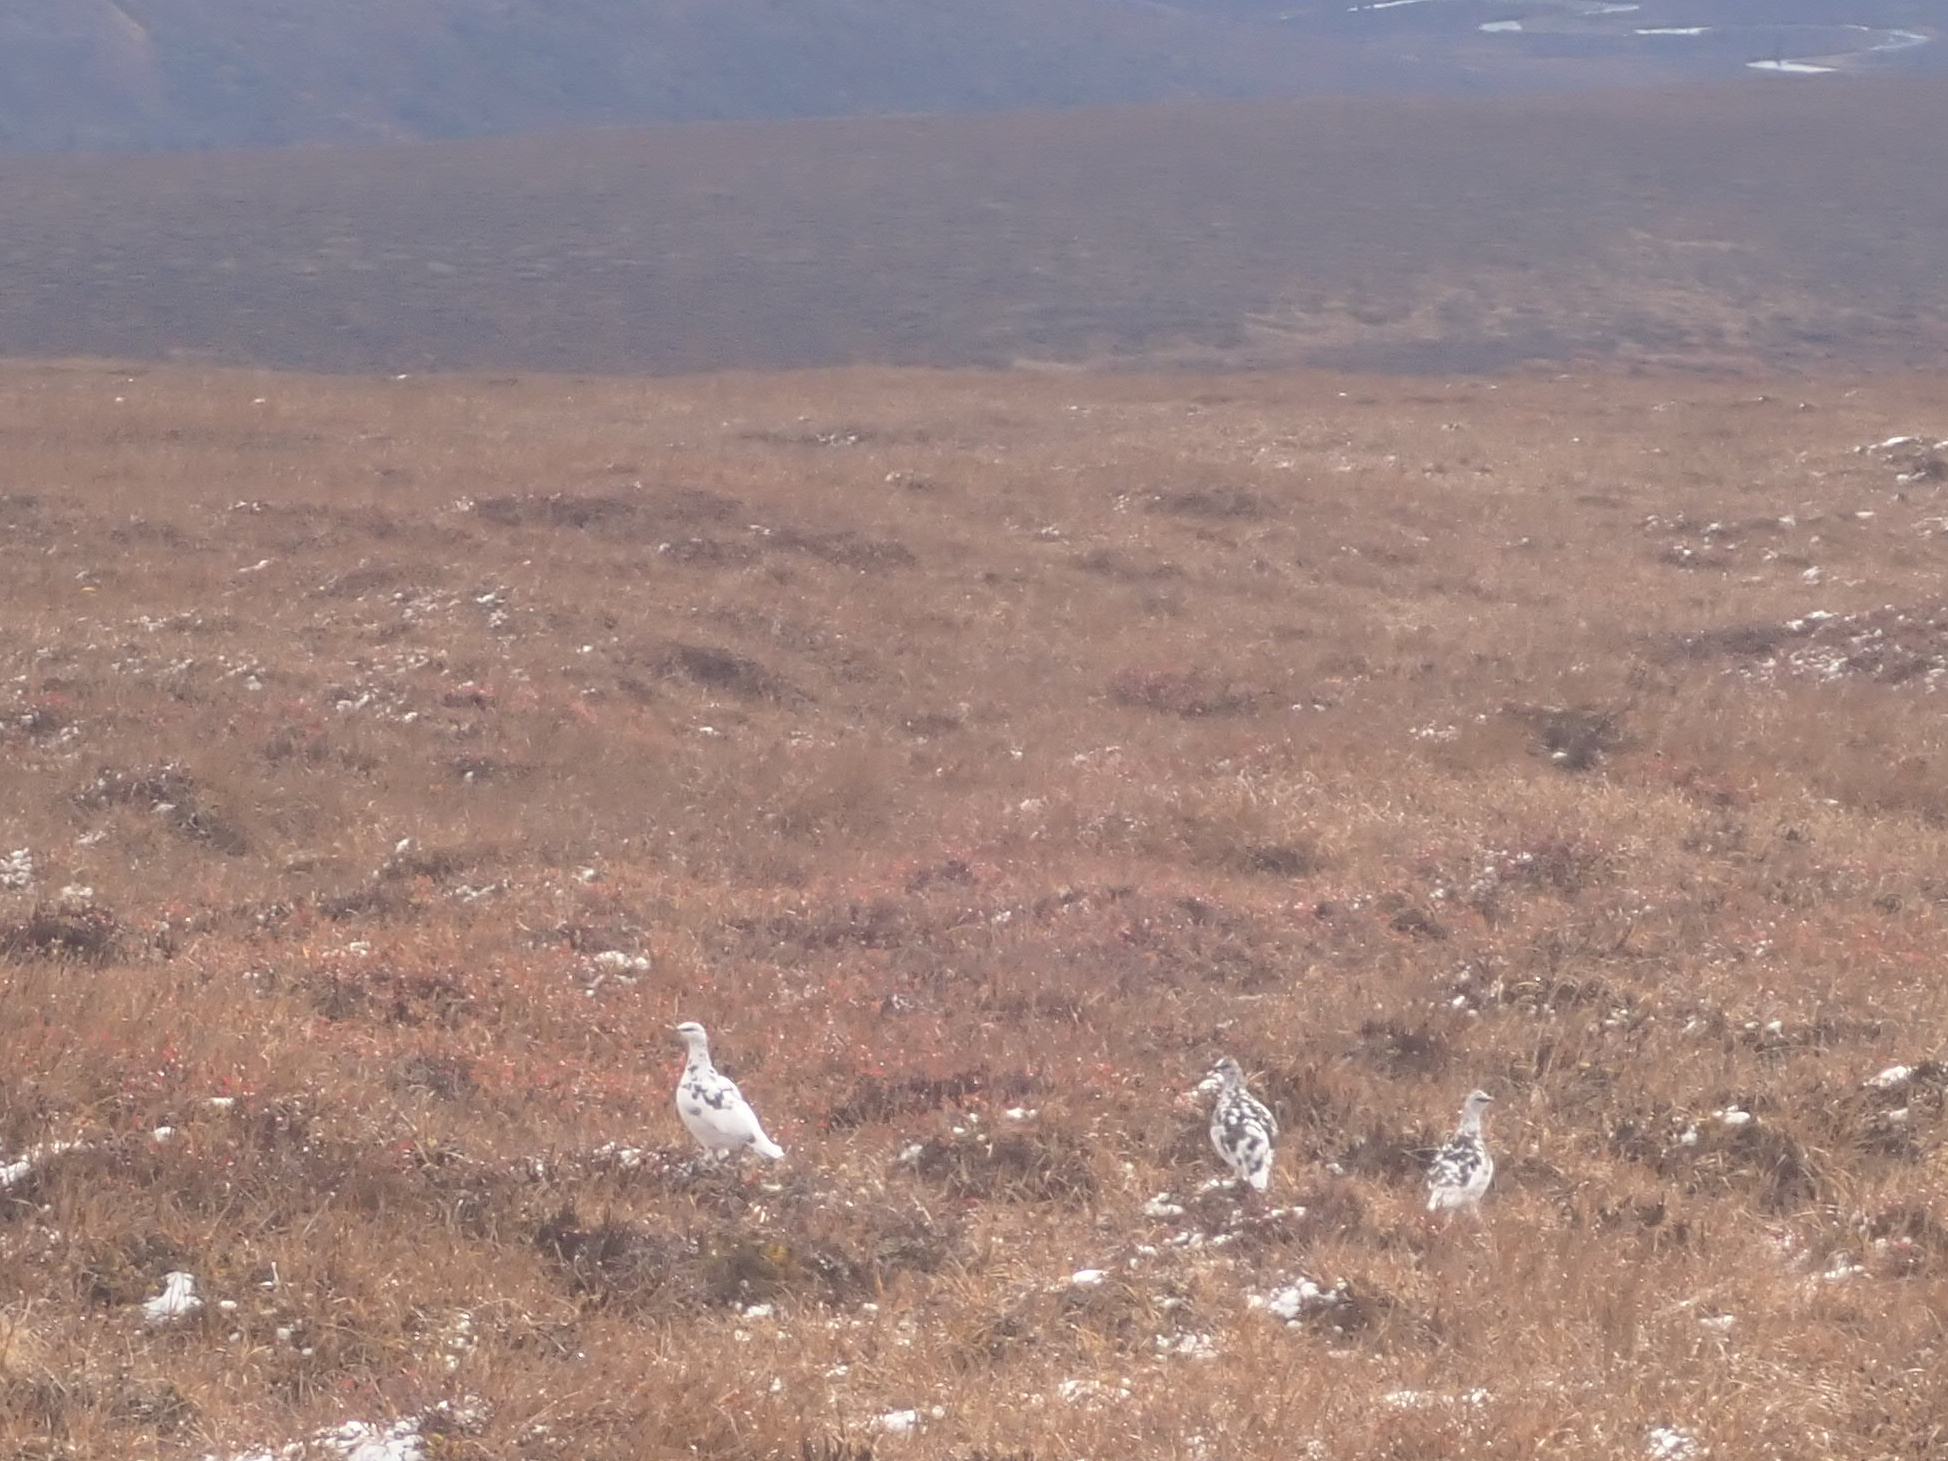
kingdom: Animalia
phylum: Chordata
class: Aves
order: Galliformes
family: Phasianidae
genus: Lagopus
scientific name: Lagopus muta
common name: Rock ptarmigan
